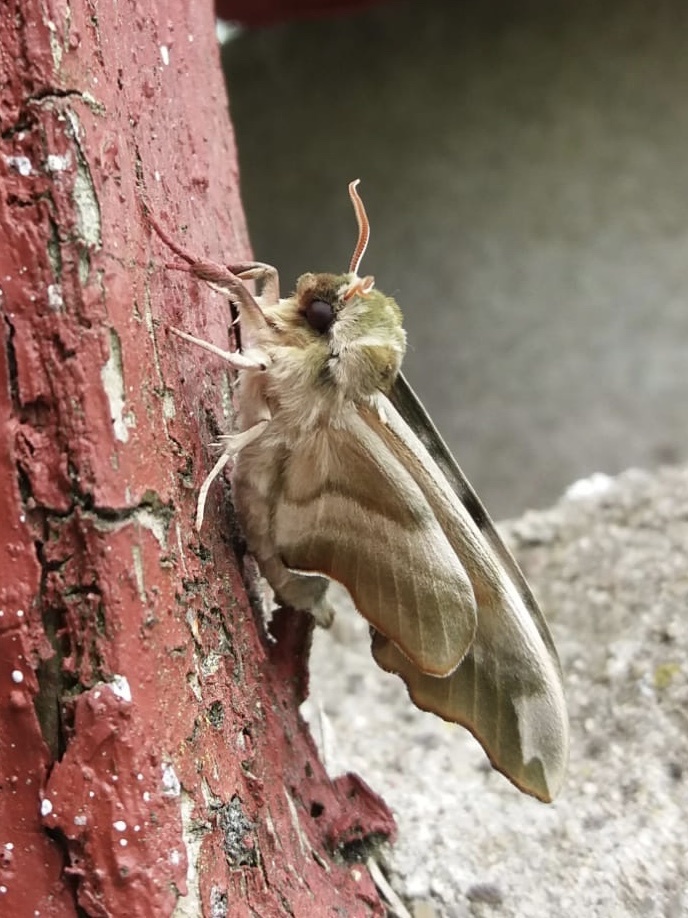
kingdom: Animalia
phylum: Arthropoda
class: Insecta
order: Lepidoptera
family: Sphingidae
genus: Mimas
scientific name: Mimas tiliae
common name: Lime hawk-moth
